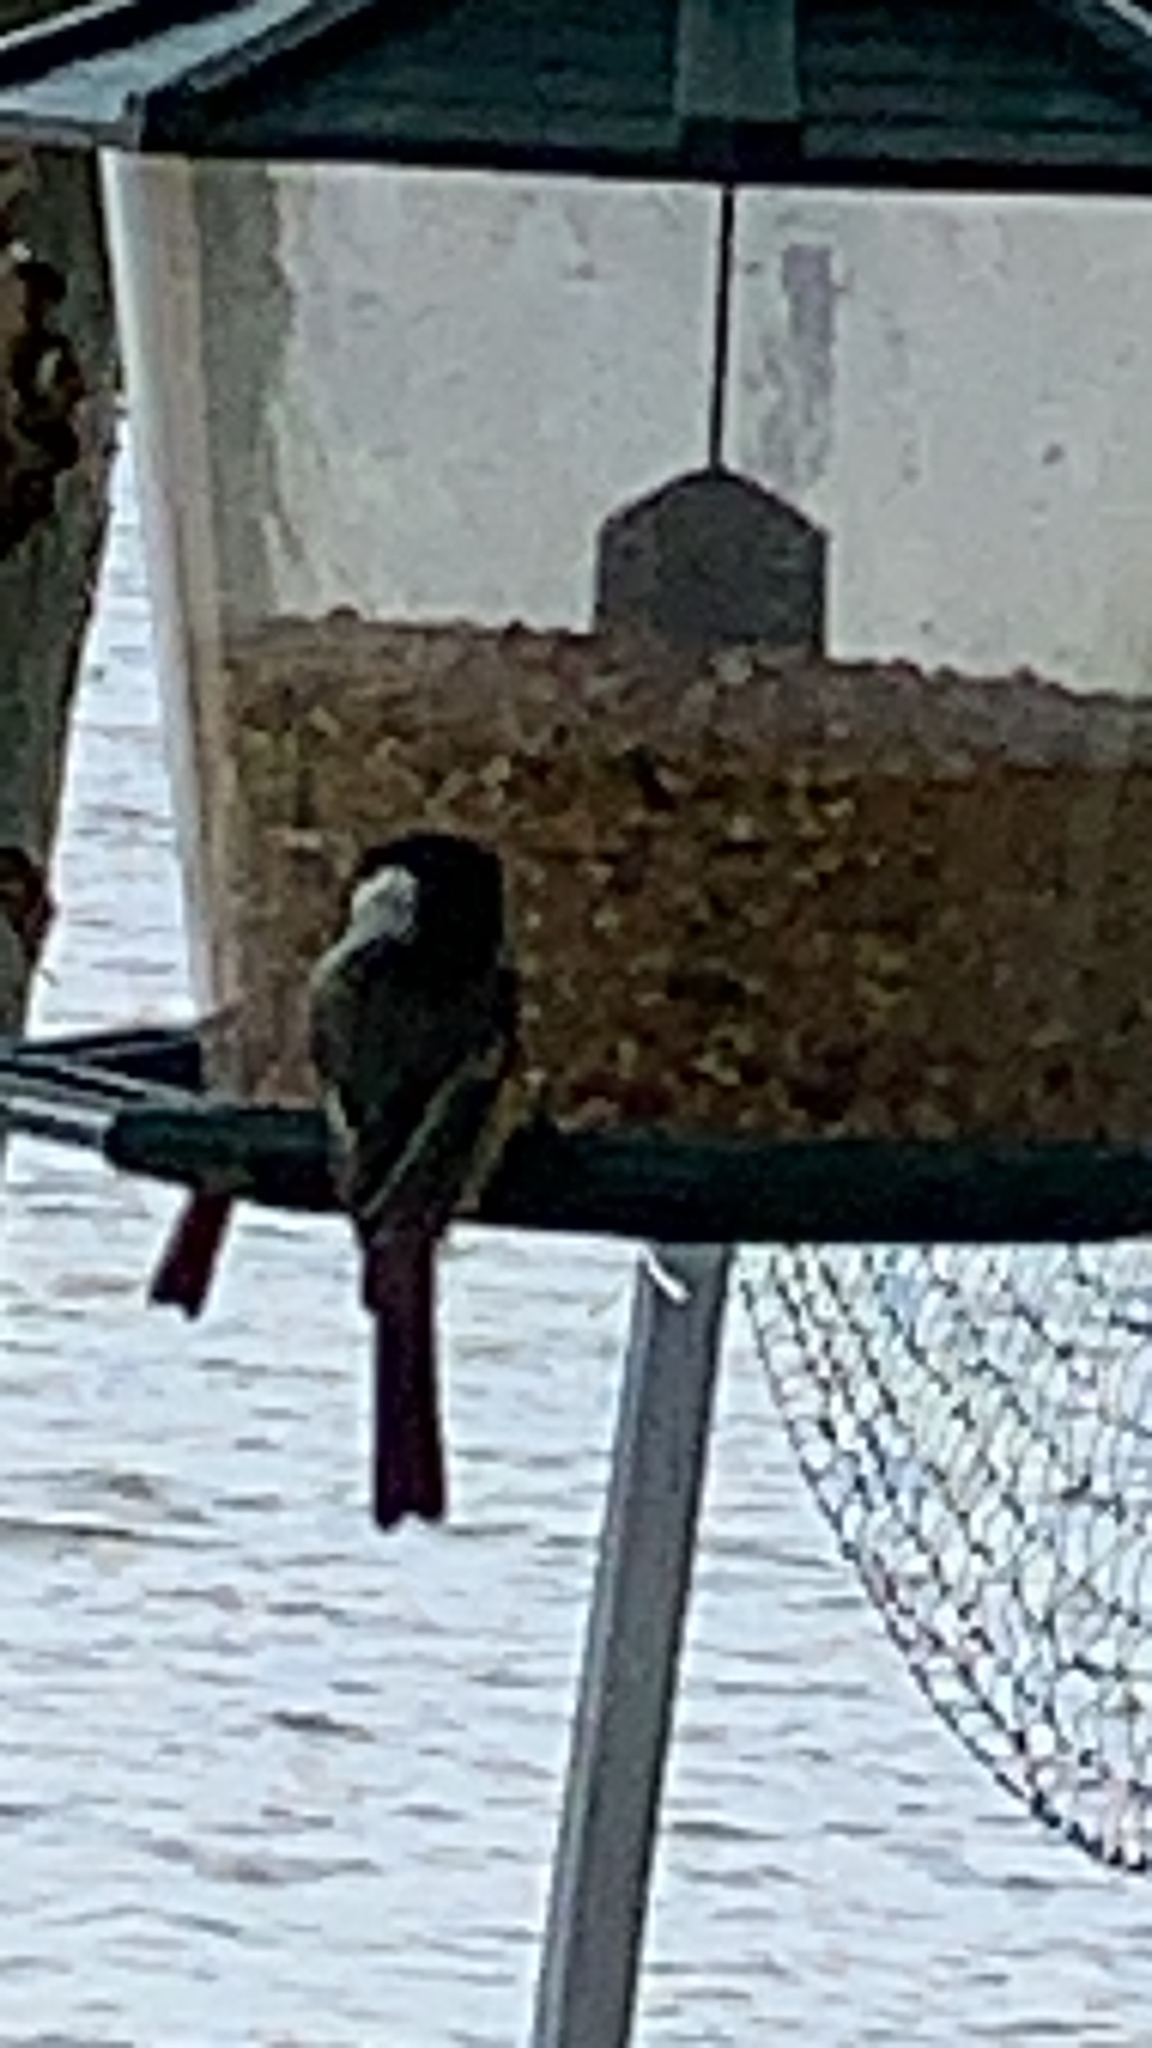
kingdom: Animalia
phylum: Chordata
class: Aves
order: Passeriformes
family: Paridae
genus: Poecile
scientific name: Poecile atricapillus
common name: Black-capped chickadee
